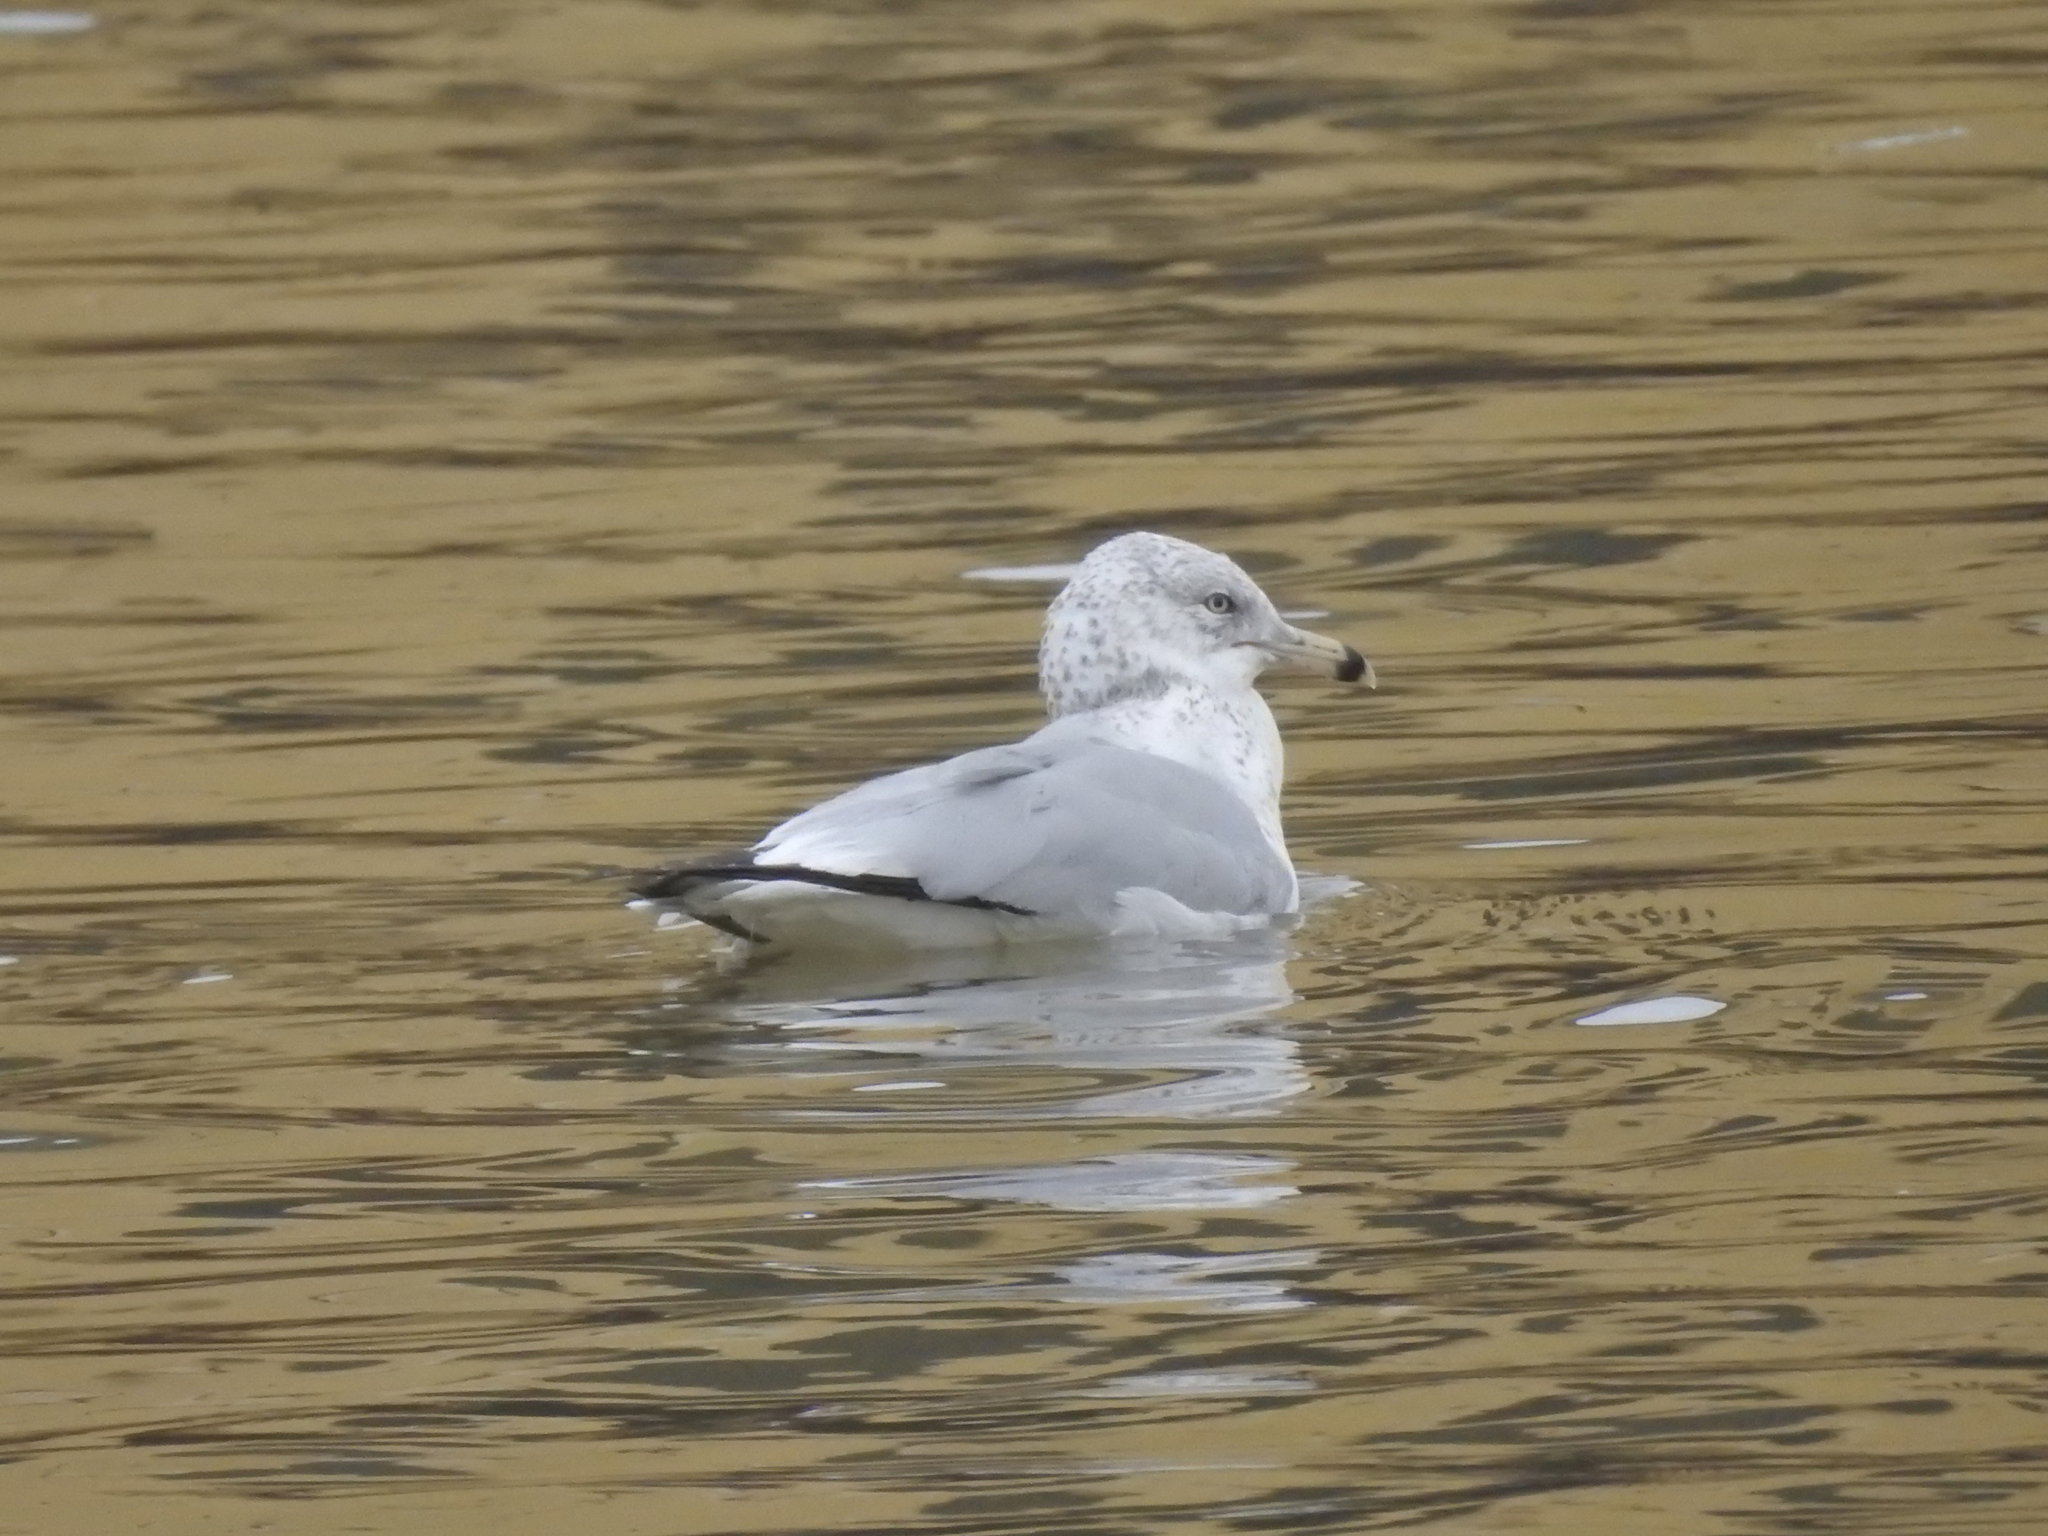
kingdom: Animalia
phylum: Chordata
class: Aves
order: Charadriiformes
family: Laridae
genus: Larus
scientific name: Larus delawarensis
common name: Ring-billed gull
